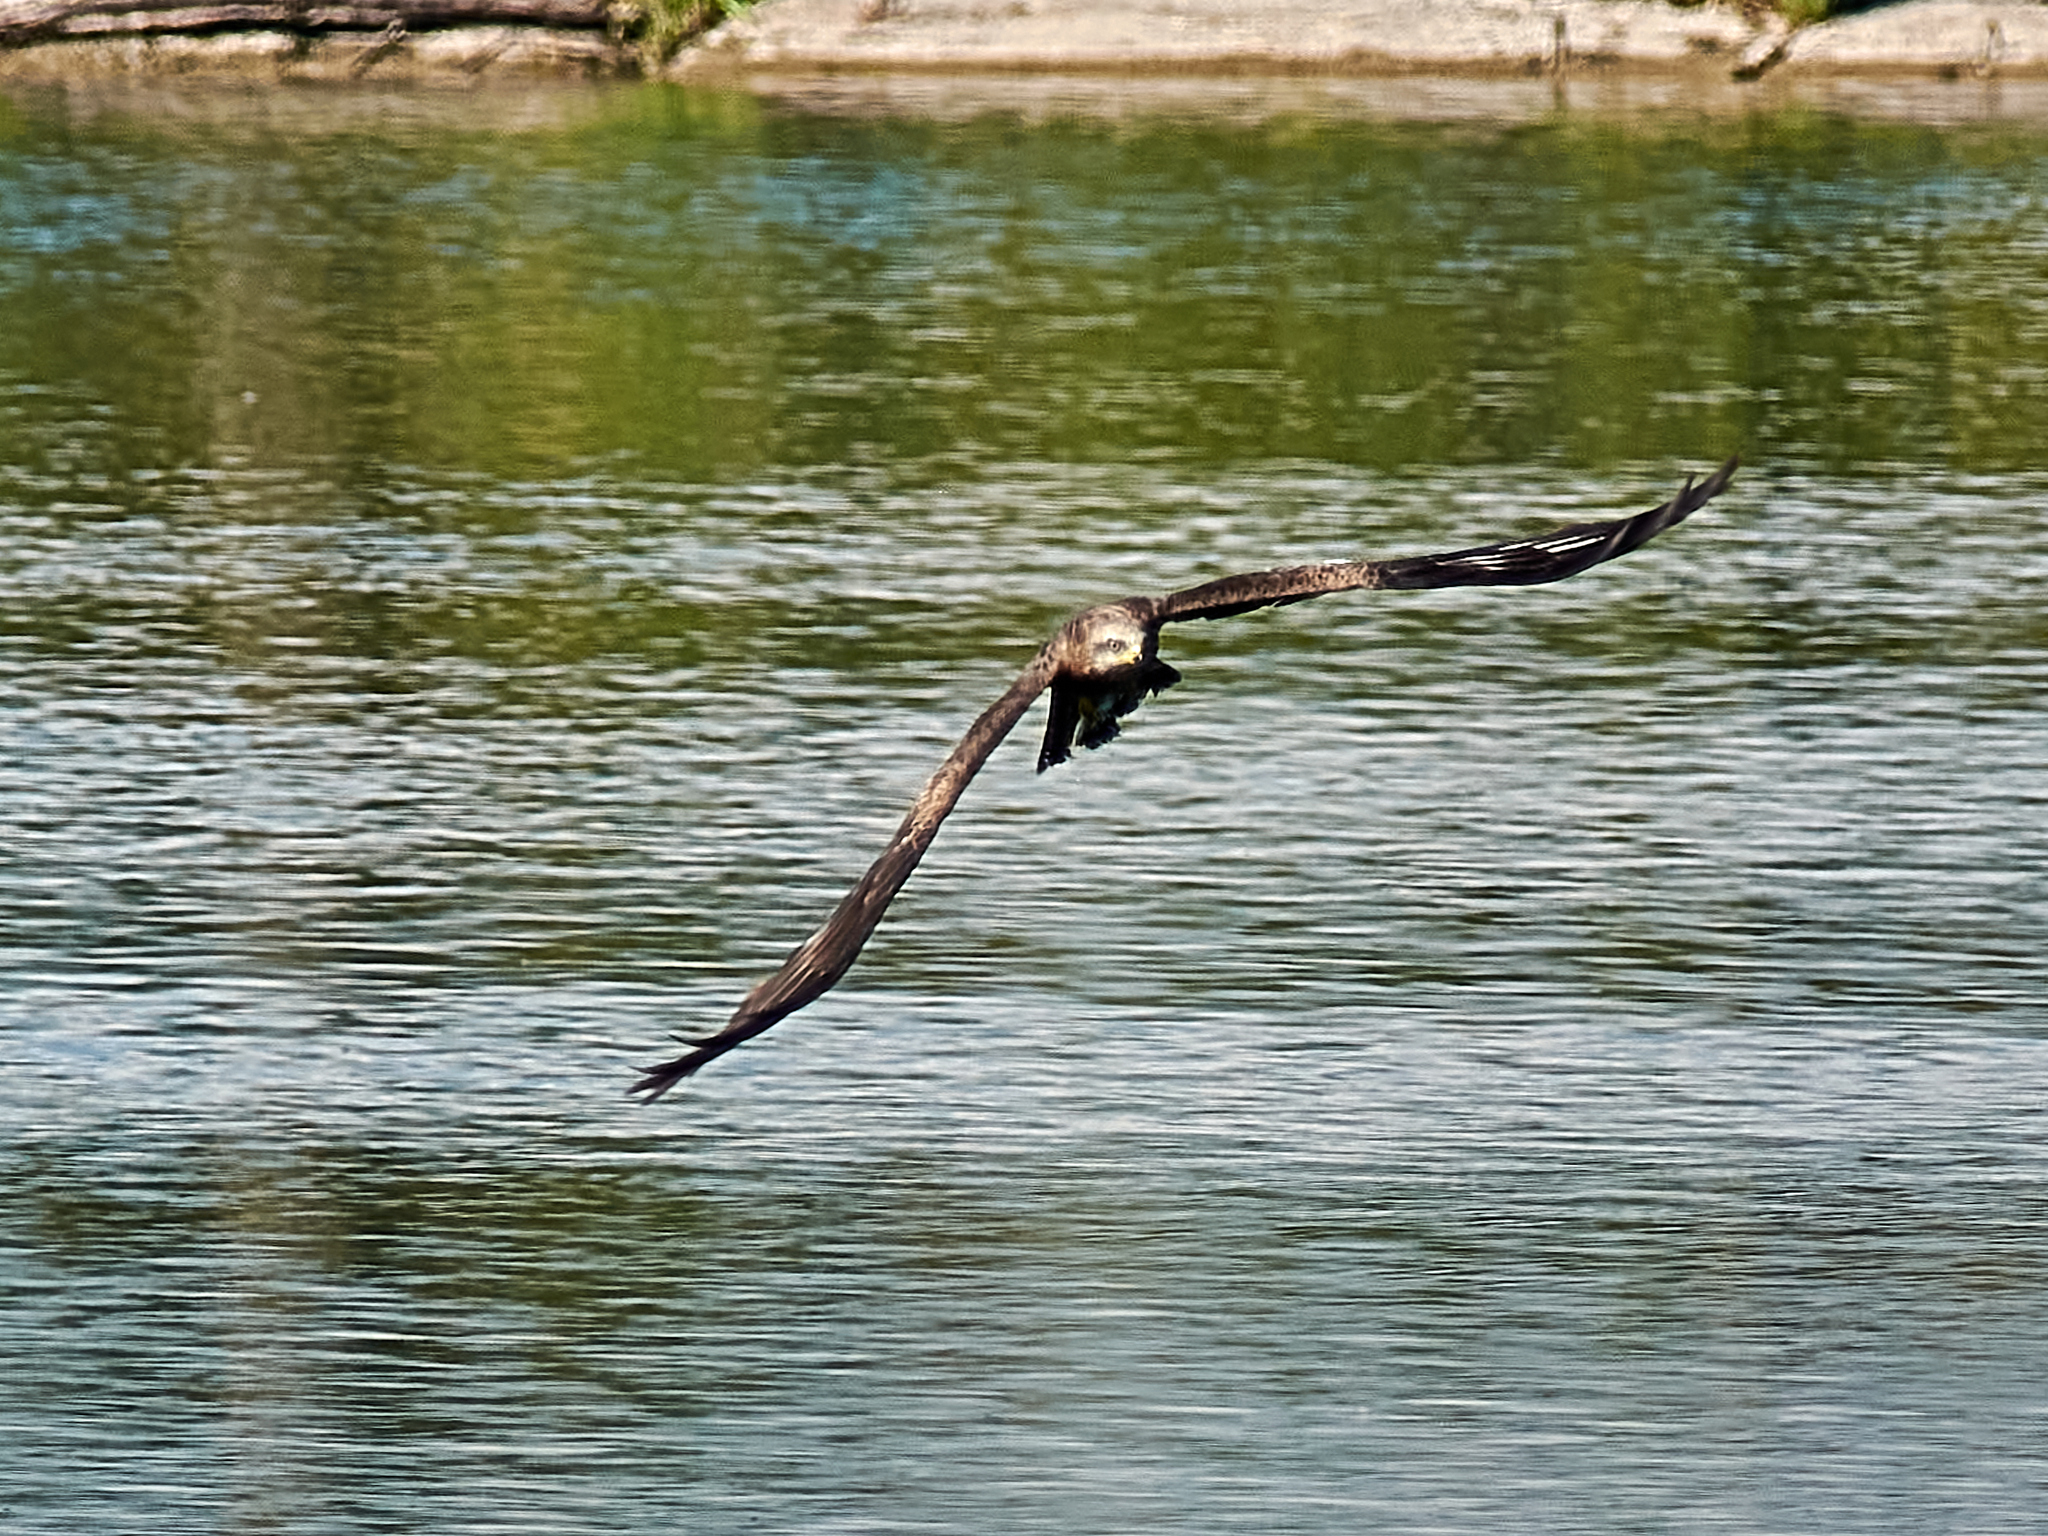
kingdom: Animalia
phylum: Chordata
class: Aves
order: Accipitriformes
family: Accipitridae
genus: Milvus
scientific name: Milvus migrans
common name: Black kite
